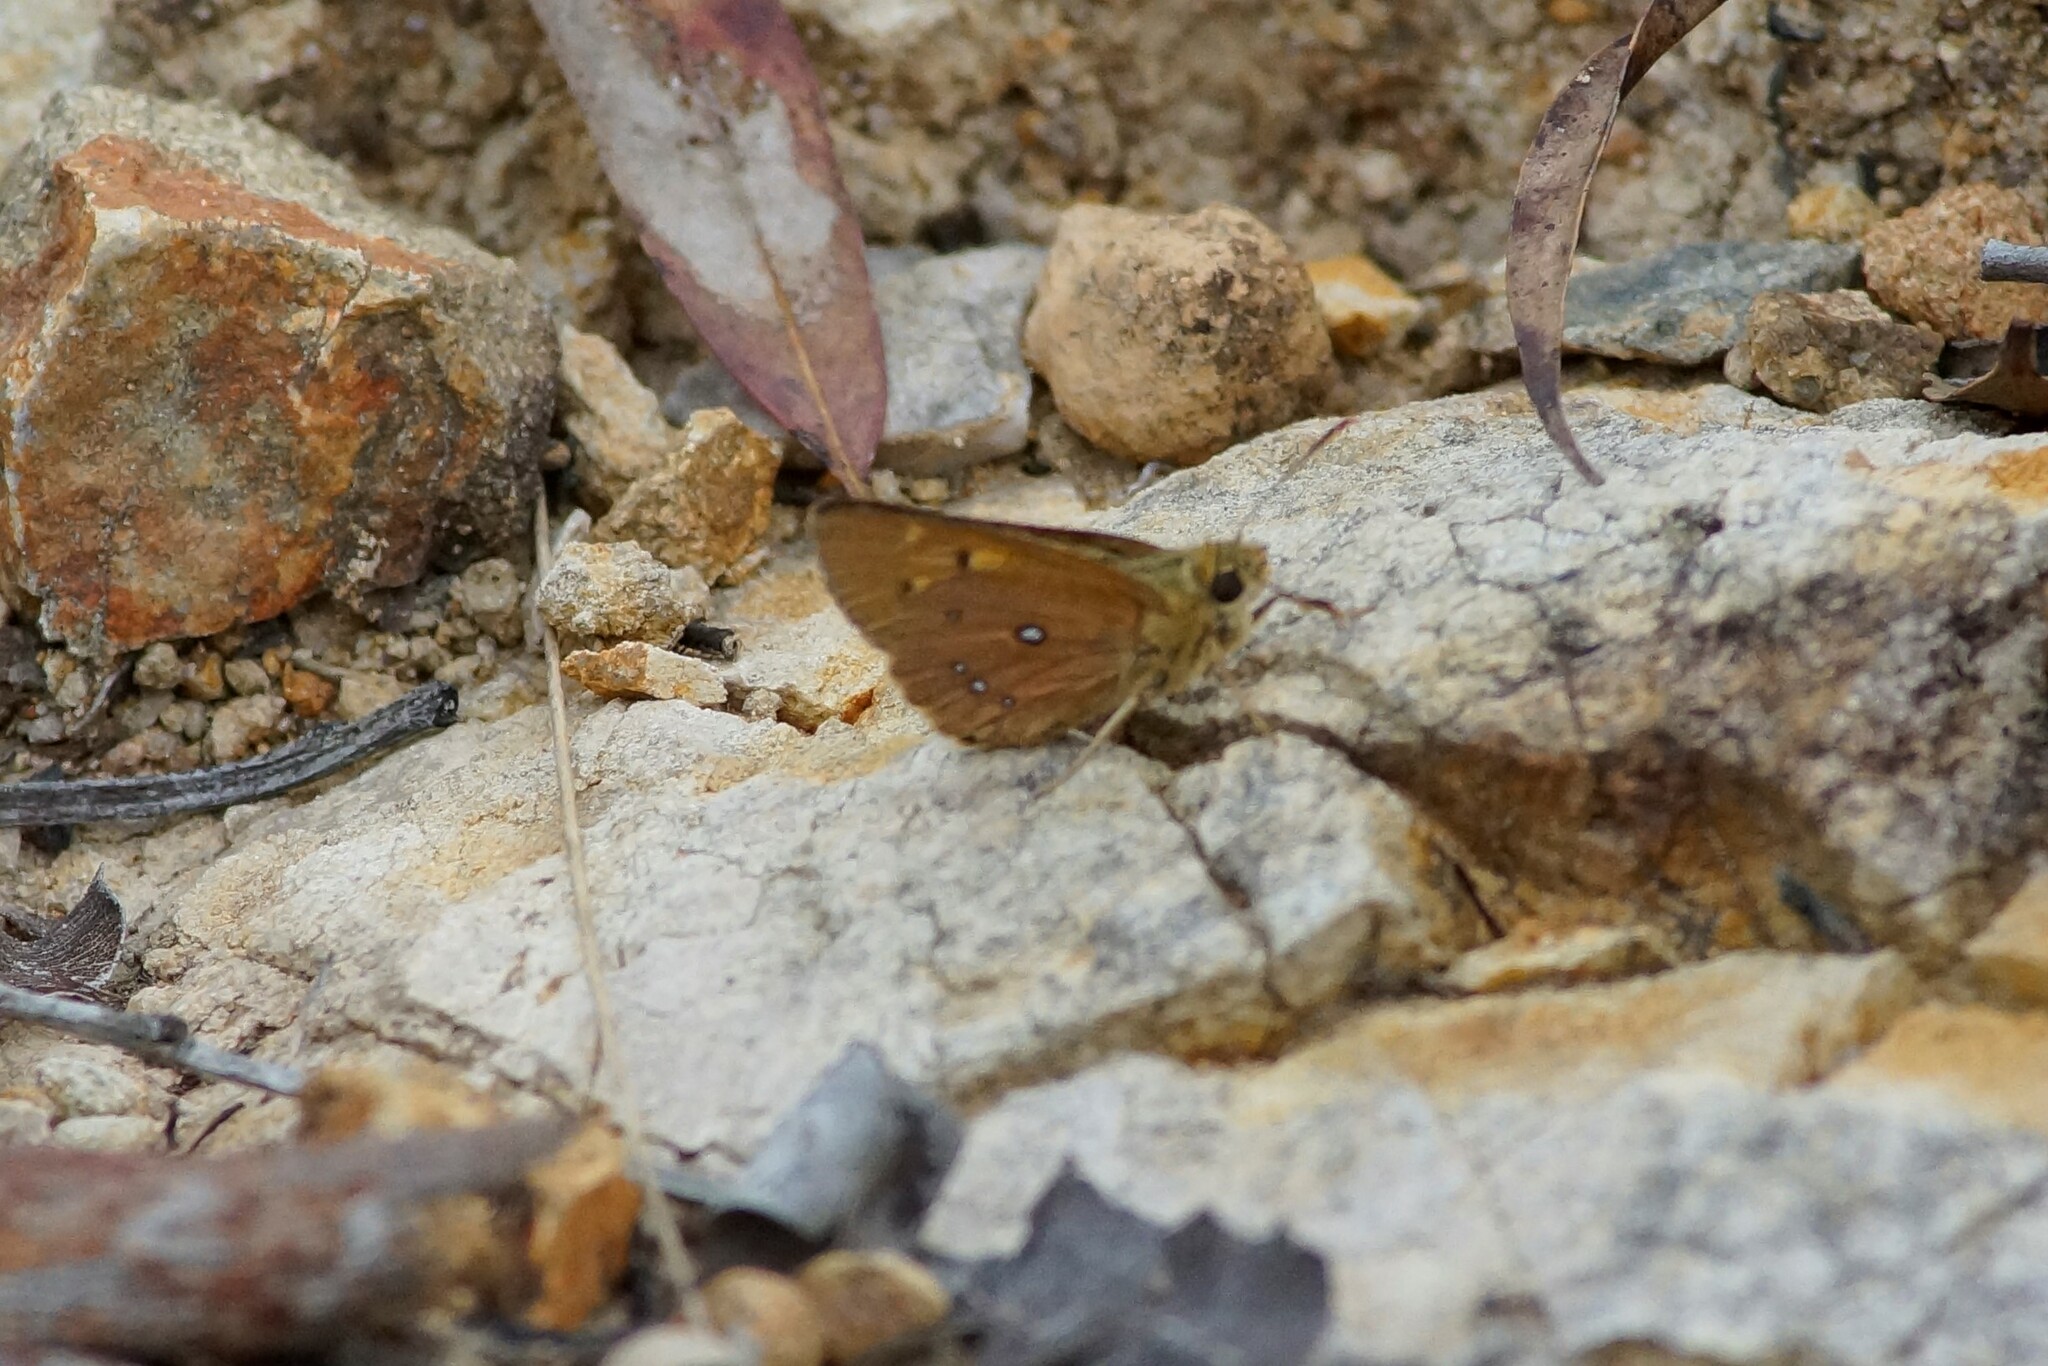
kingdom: Animalia
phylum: Arthropoda
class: Insecta
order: Lepidoptera
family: Hesperiidae
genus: Trapezites
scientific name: Trapezites eliena
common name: Eliena skipper
